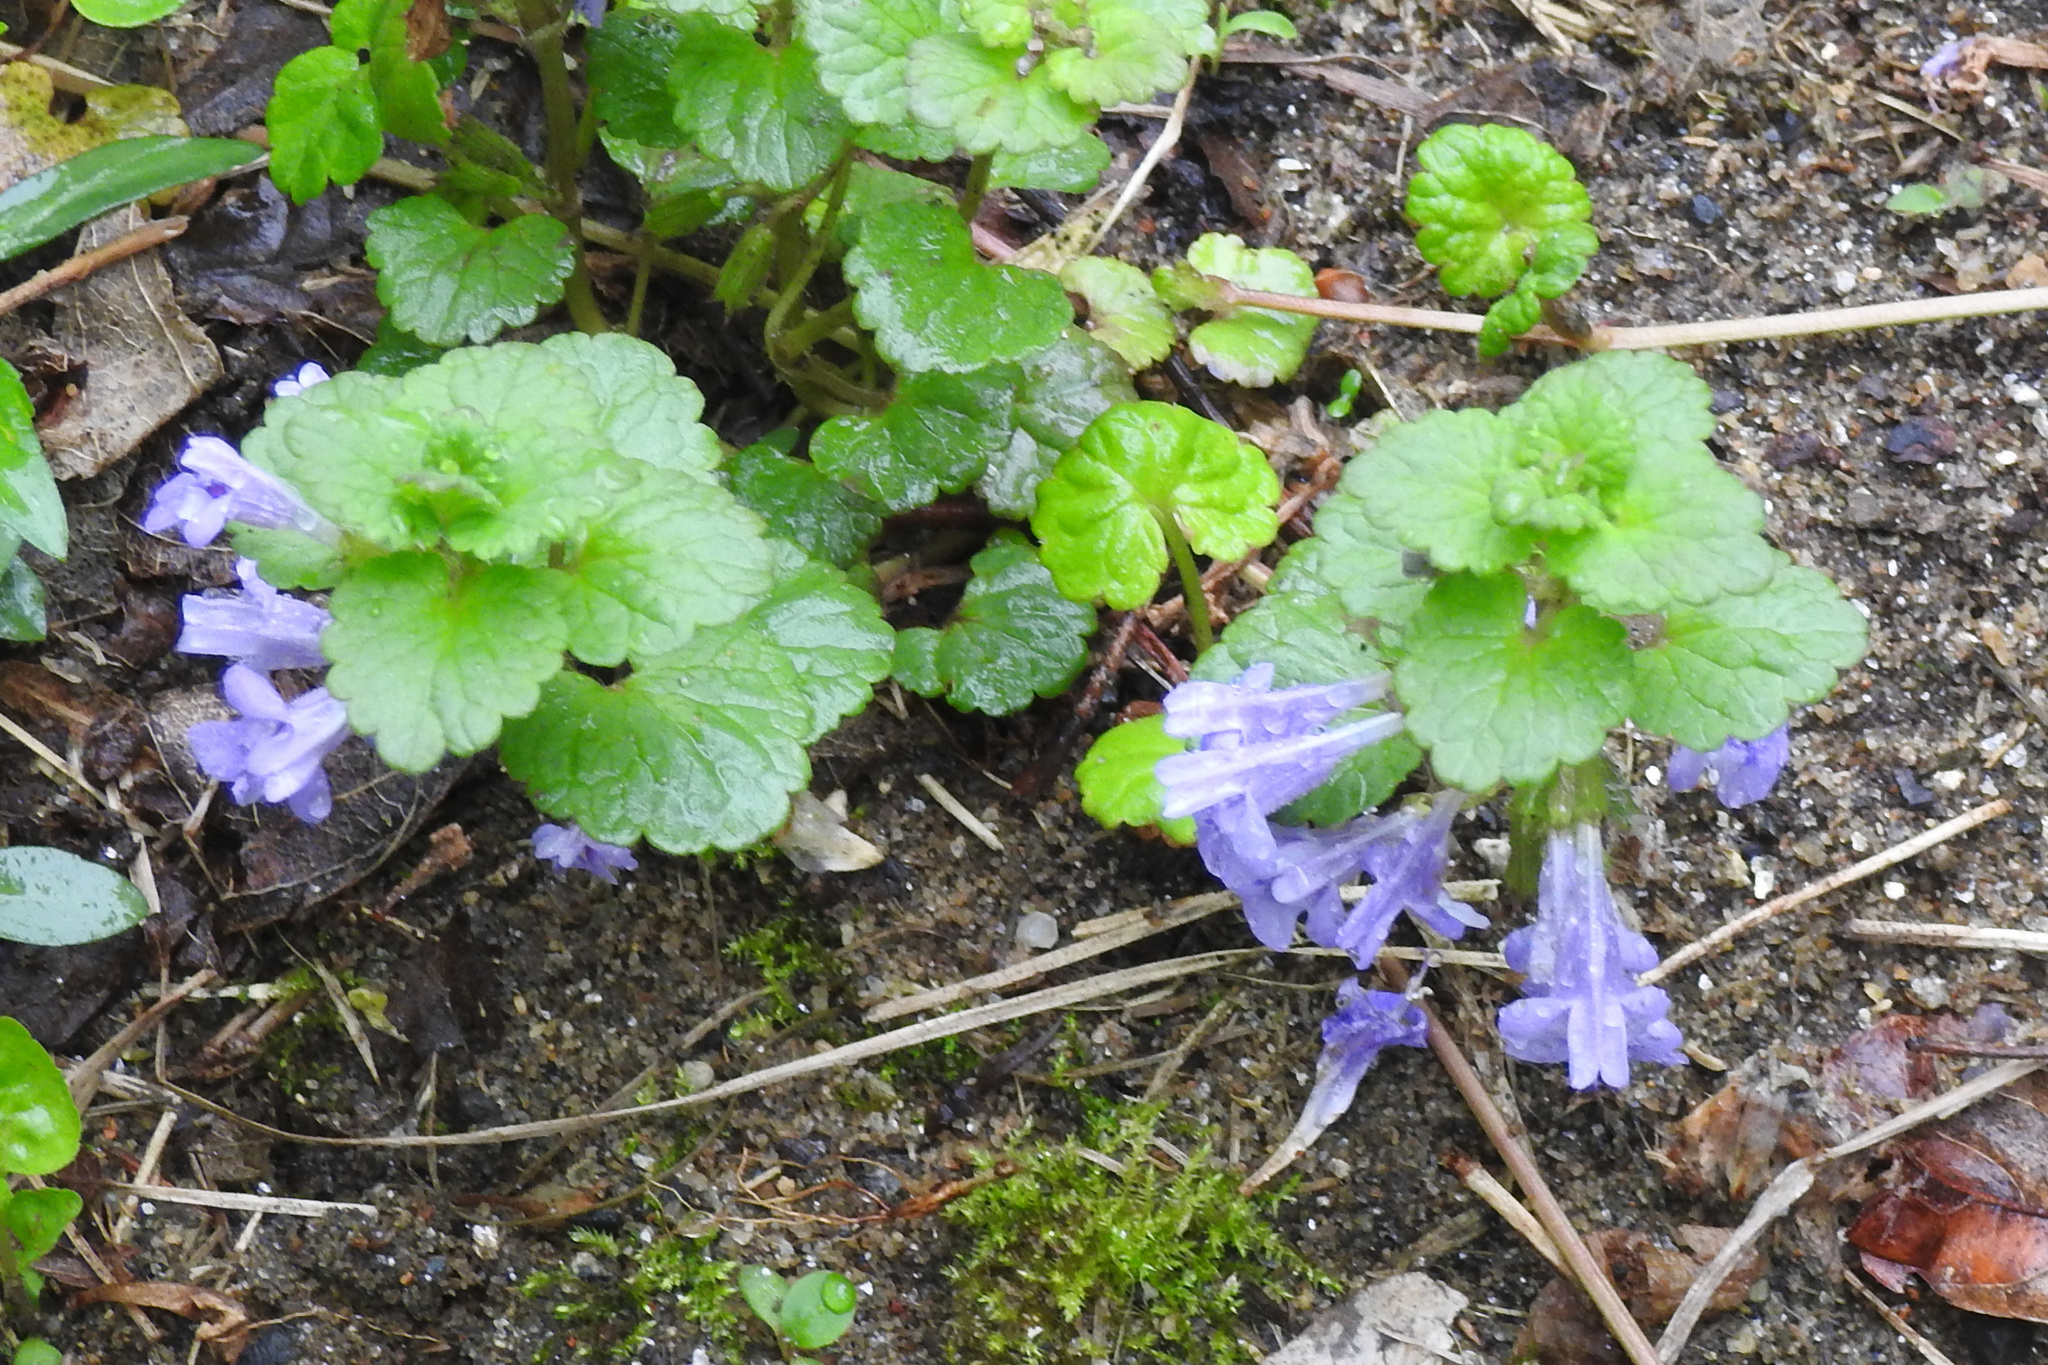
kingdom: Plantae
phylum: Tracheophyta
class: Magnoliopsida
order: Lamiales
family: Lamiaceae
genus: Glechoma
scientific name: Glechoma hederacea
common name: Ground ivy
